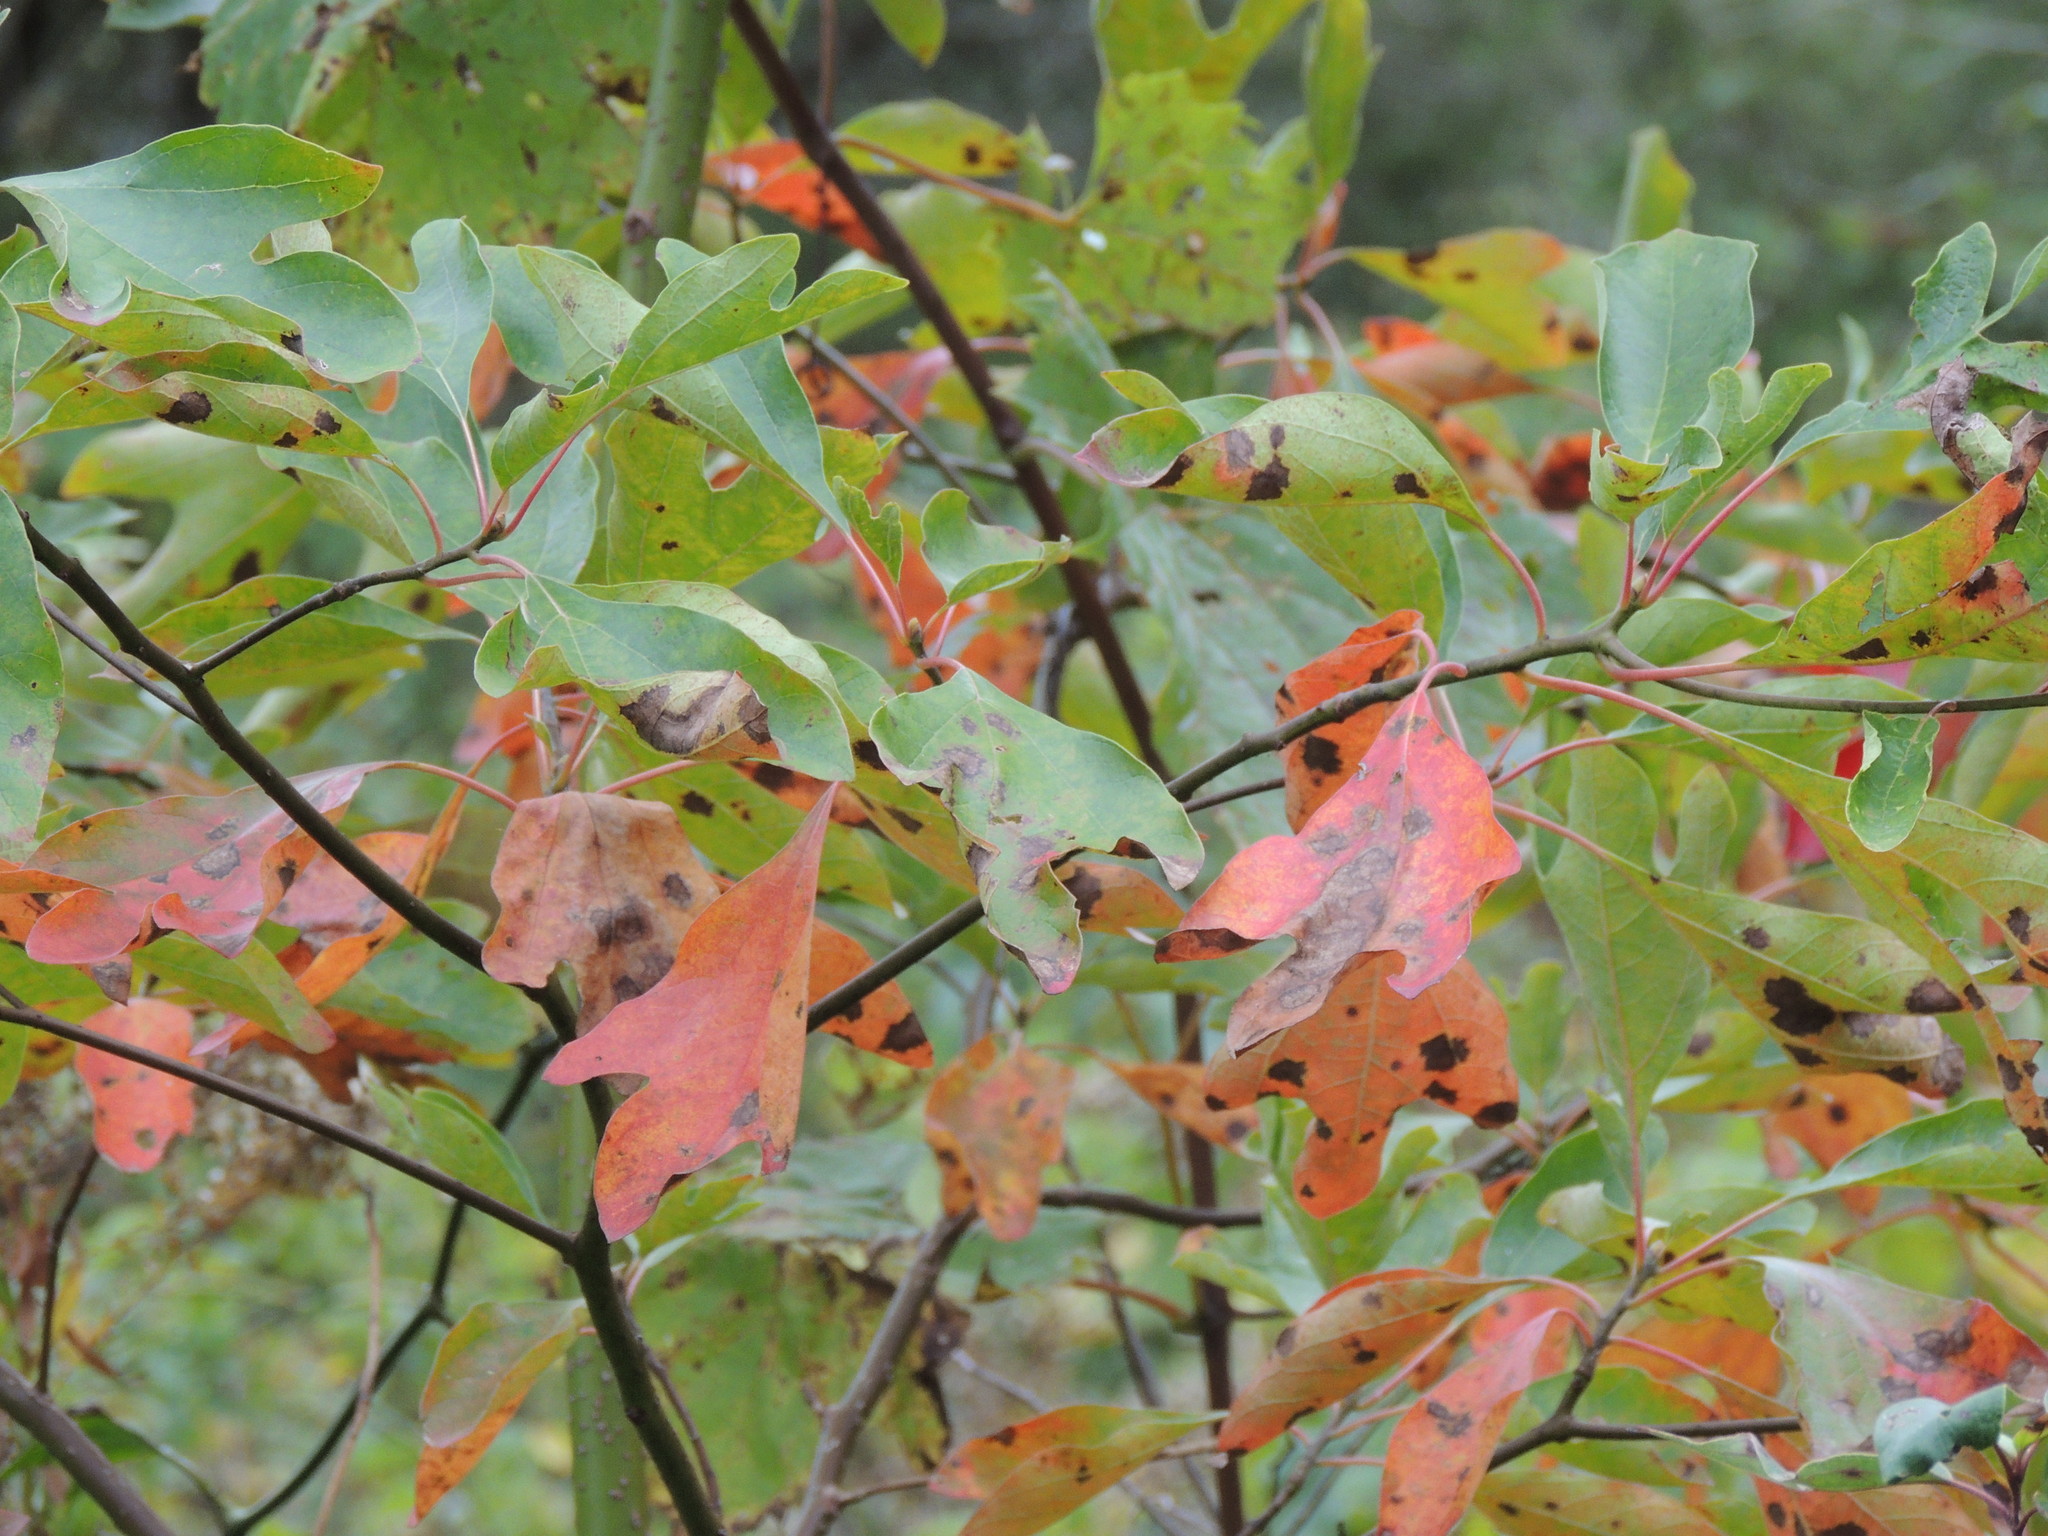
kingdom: Plantae
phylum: Tracheophyta
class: Magnoliopsida
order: Laurales
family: Lauraceae
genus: Sassafras
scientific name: Sassafras albidum
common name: Sassafras
